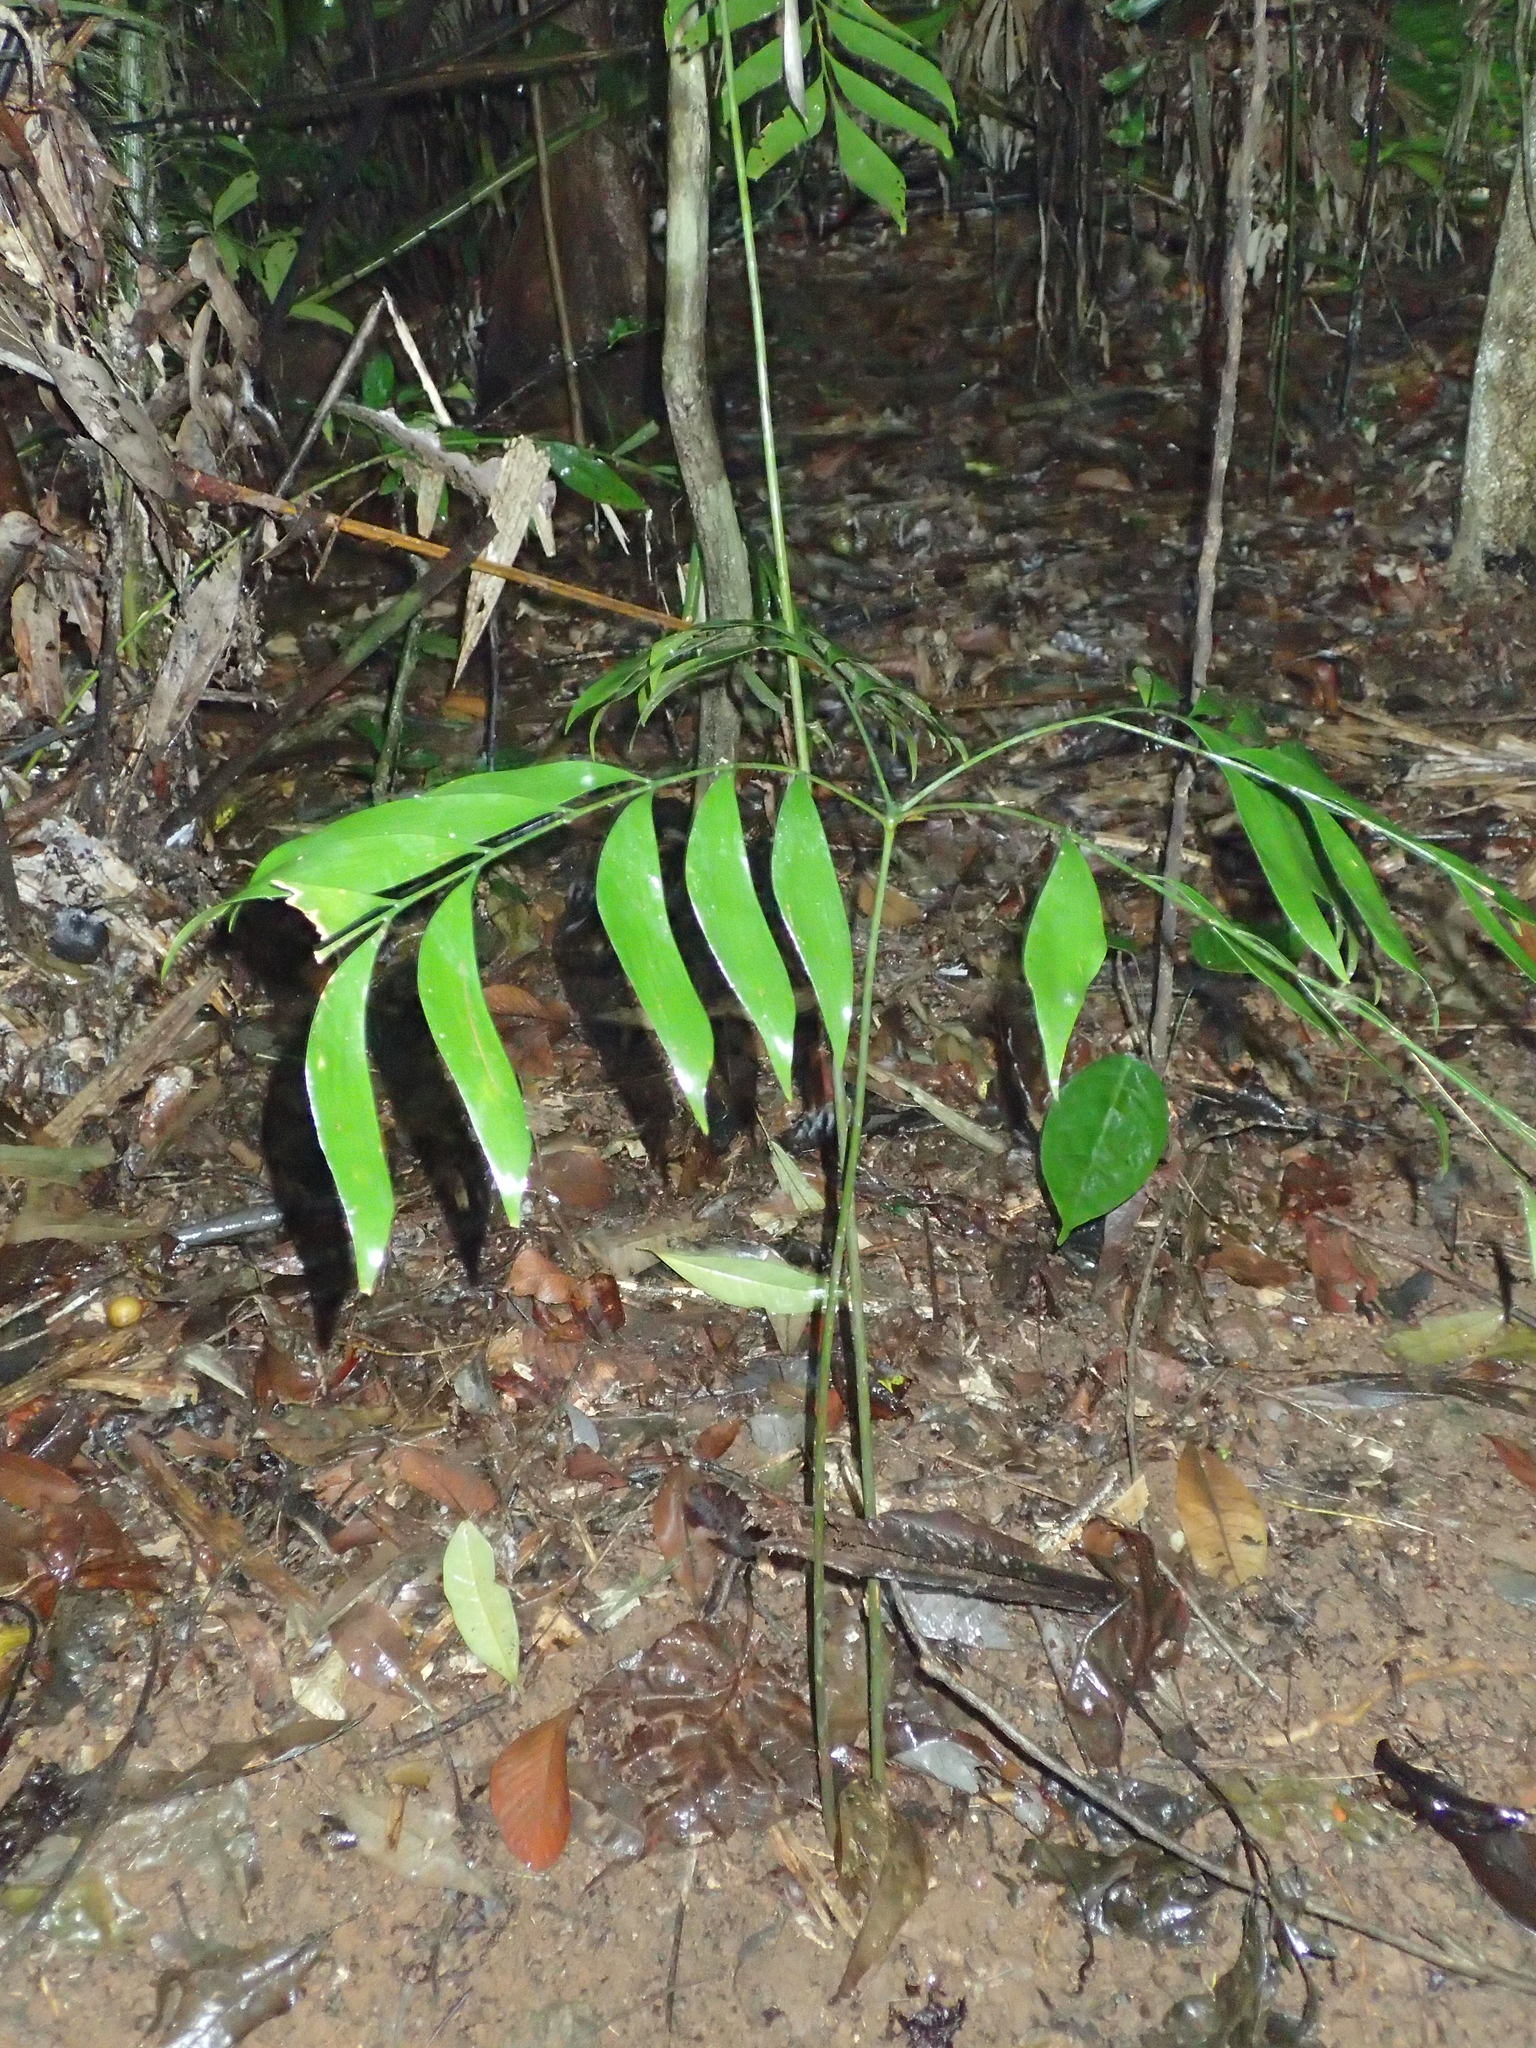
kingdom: Plantae
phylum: Tracheophyta
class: Cycadopsida
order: Cycadales
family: Zamiaceae
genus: Bowenia
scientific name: Bowenia spectabilis
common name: Zamia-fern
